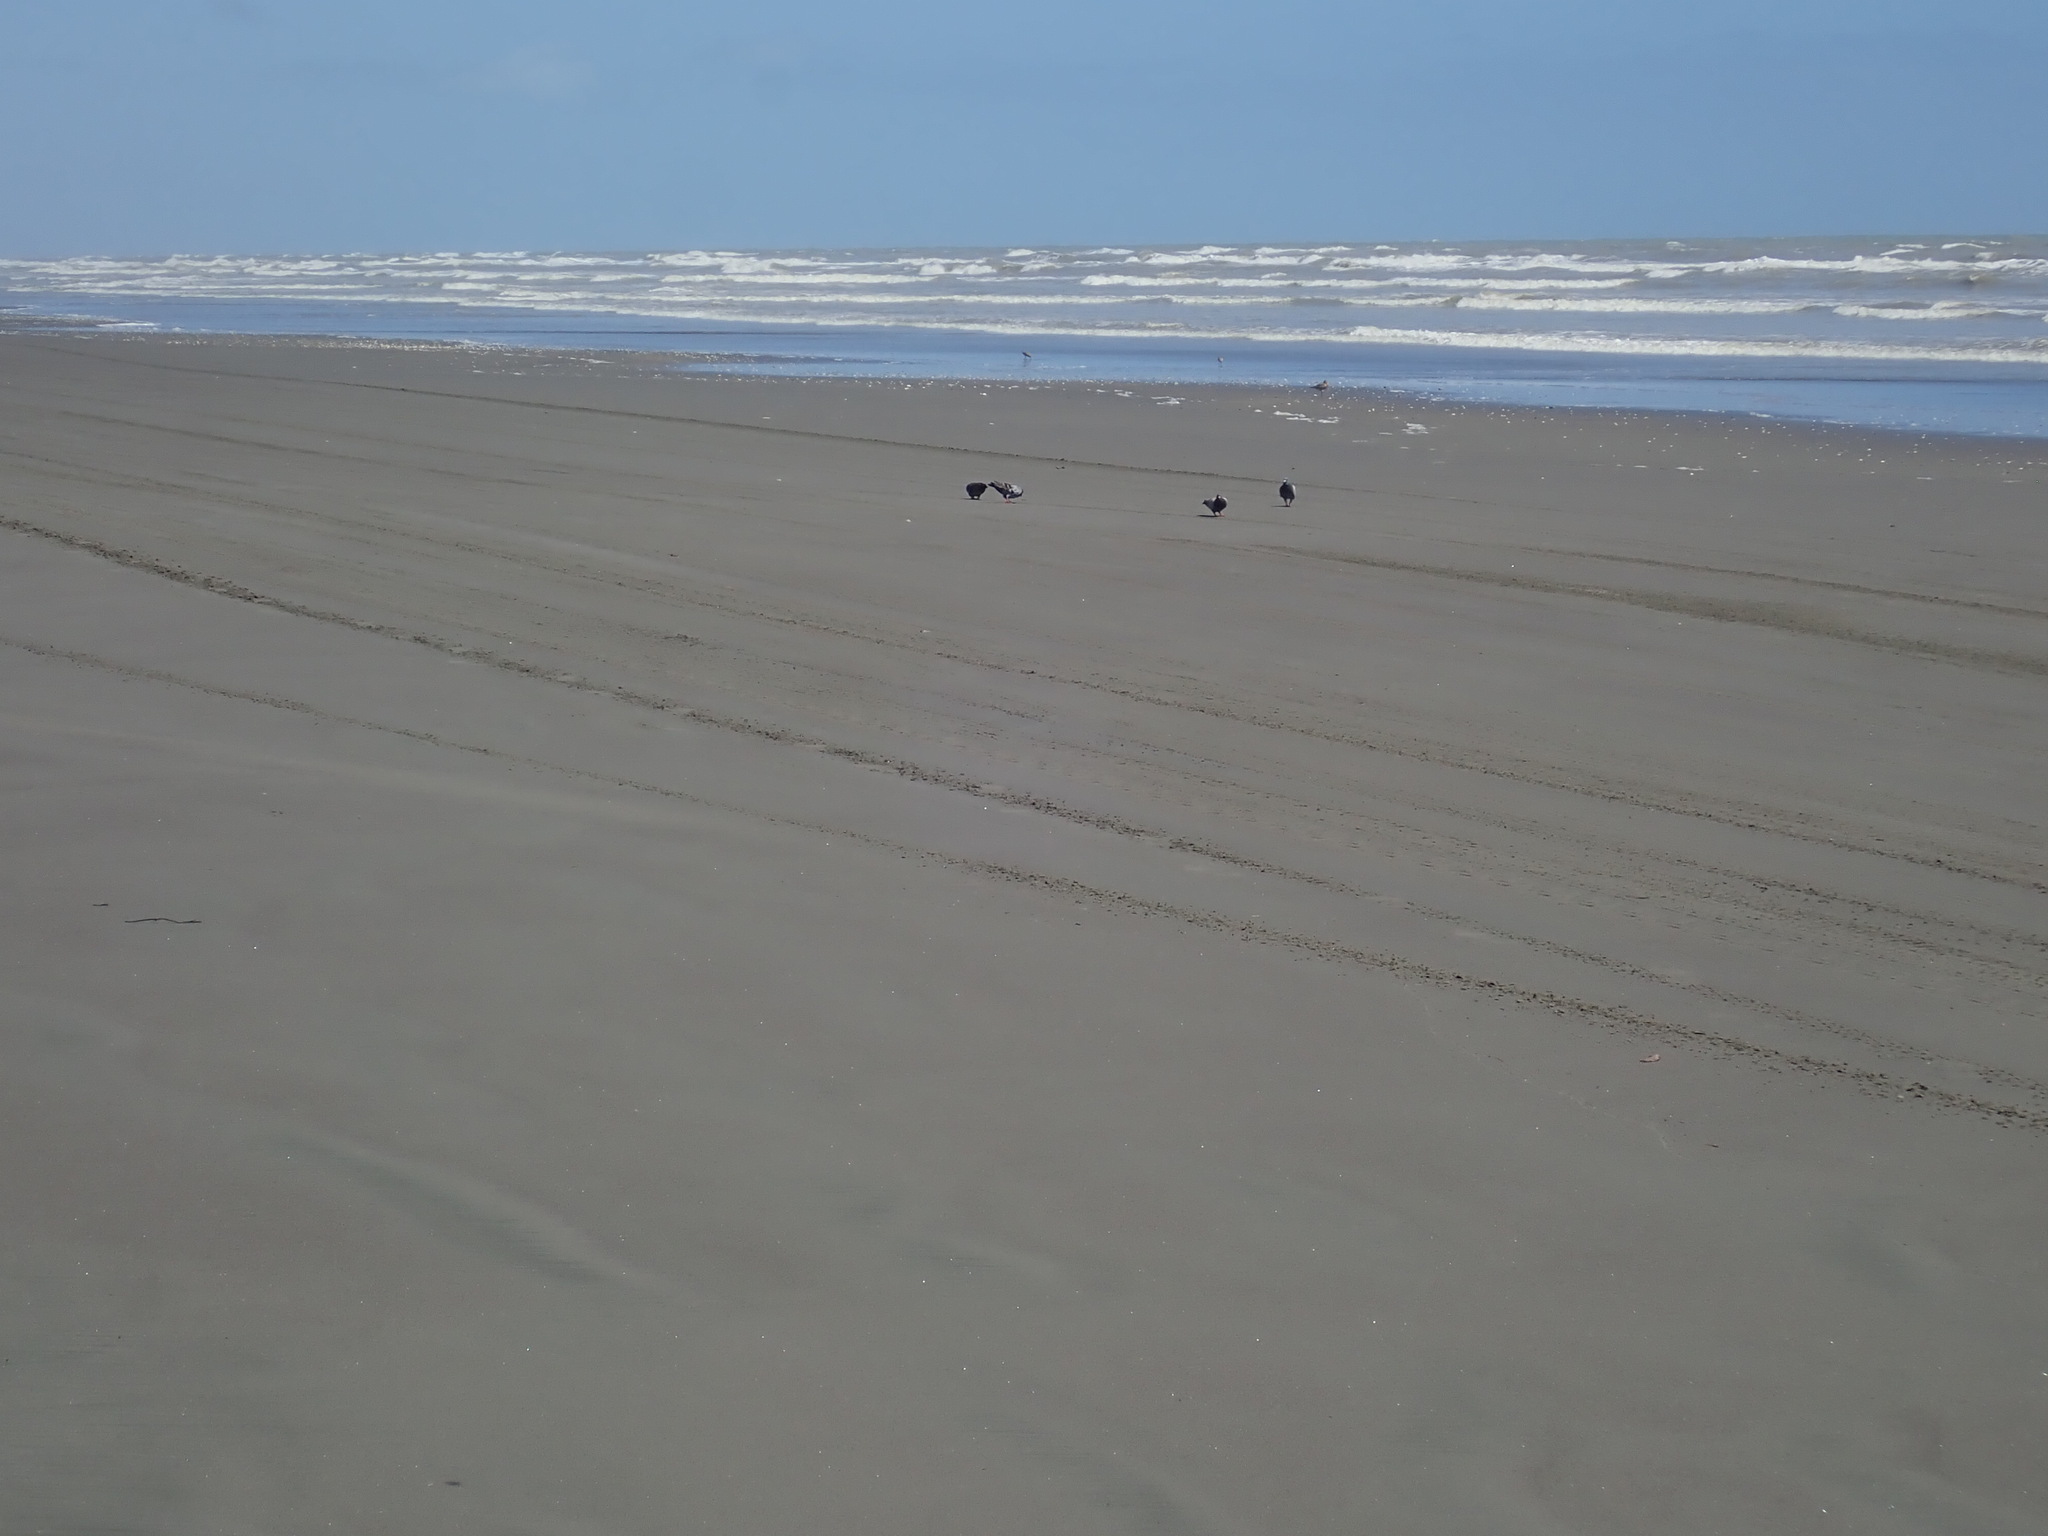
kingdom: Animalia
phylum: Chordata
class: Aves
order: Columbiformes
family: Columbidae
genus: Columba
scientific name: Columba livia
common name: Rock pigeon
